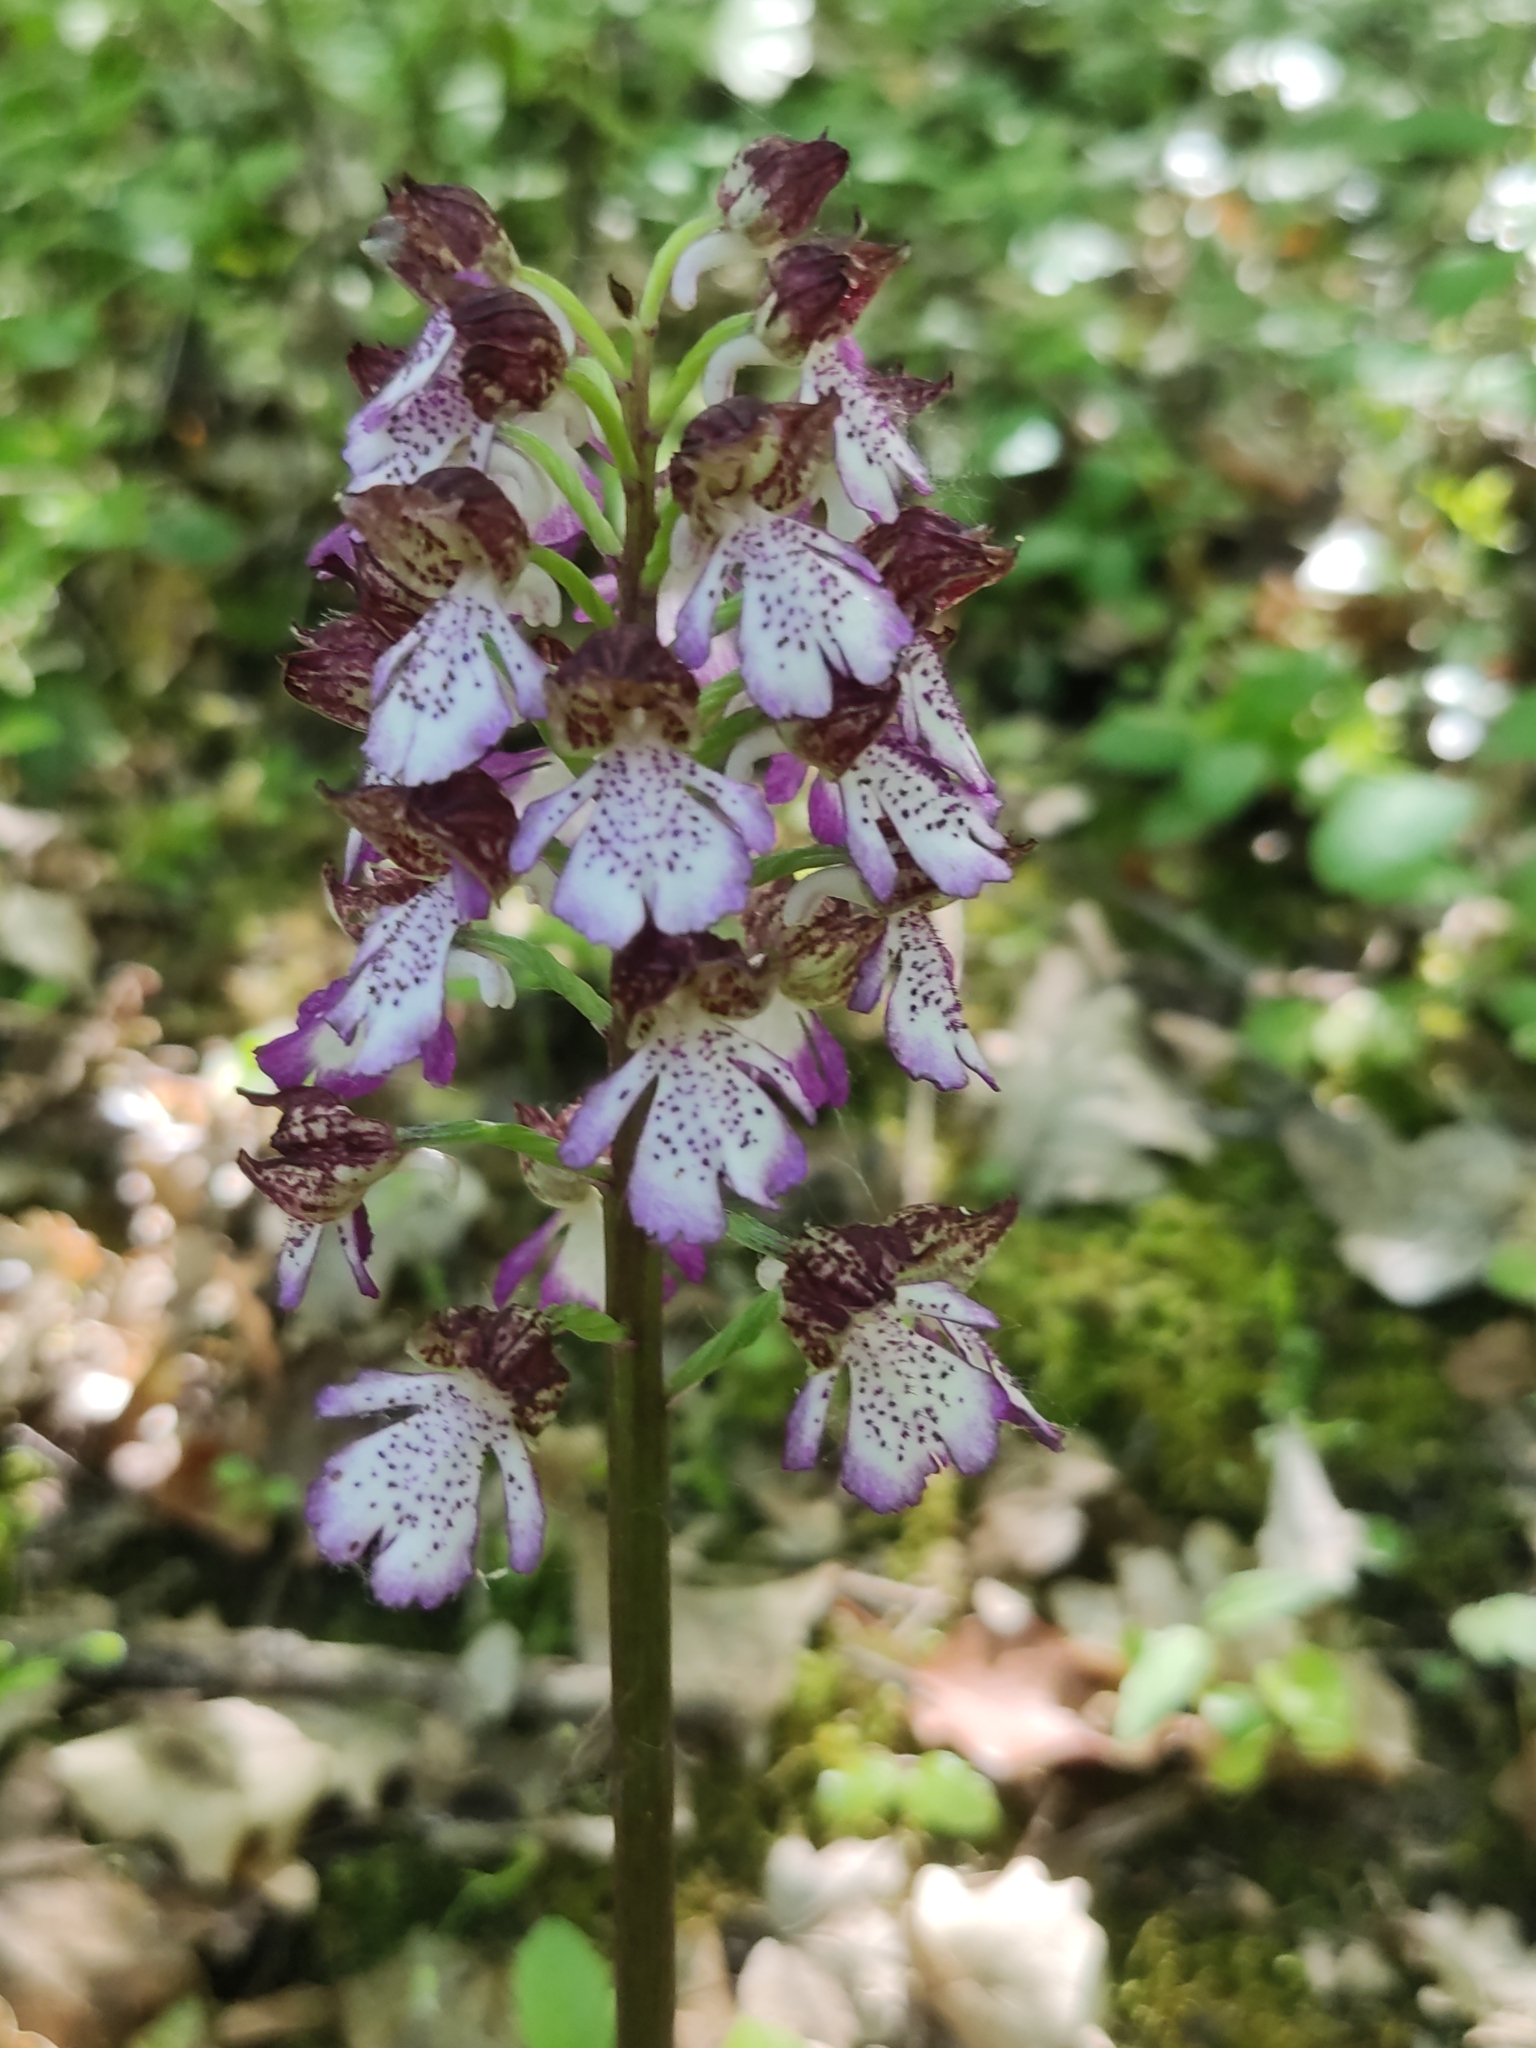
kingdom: Plantae
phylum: Tracheophyta
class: Liliopsida
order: Asparagales
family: Orchidaceae
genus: Orchis
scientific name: Orchis purpurea
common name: Lady orchid
